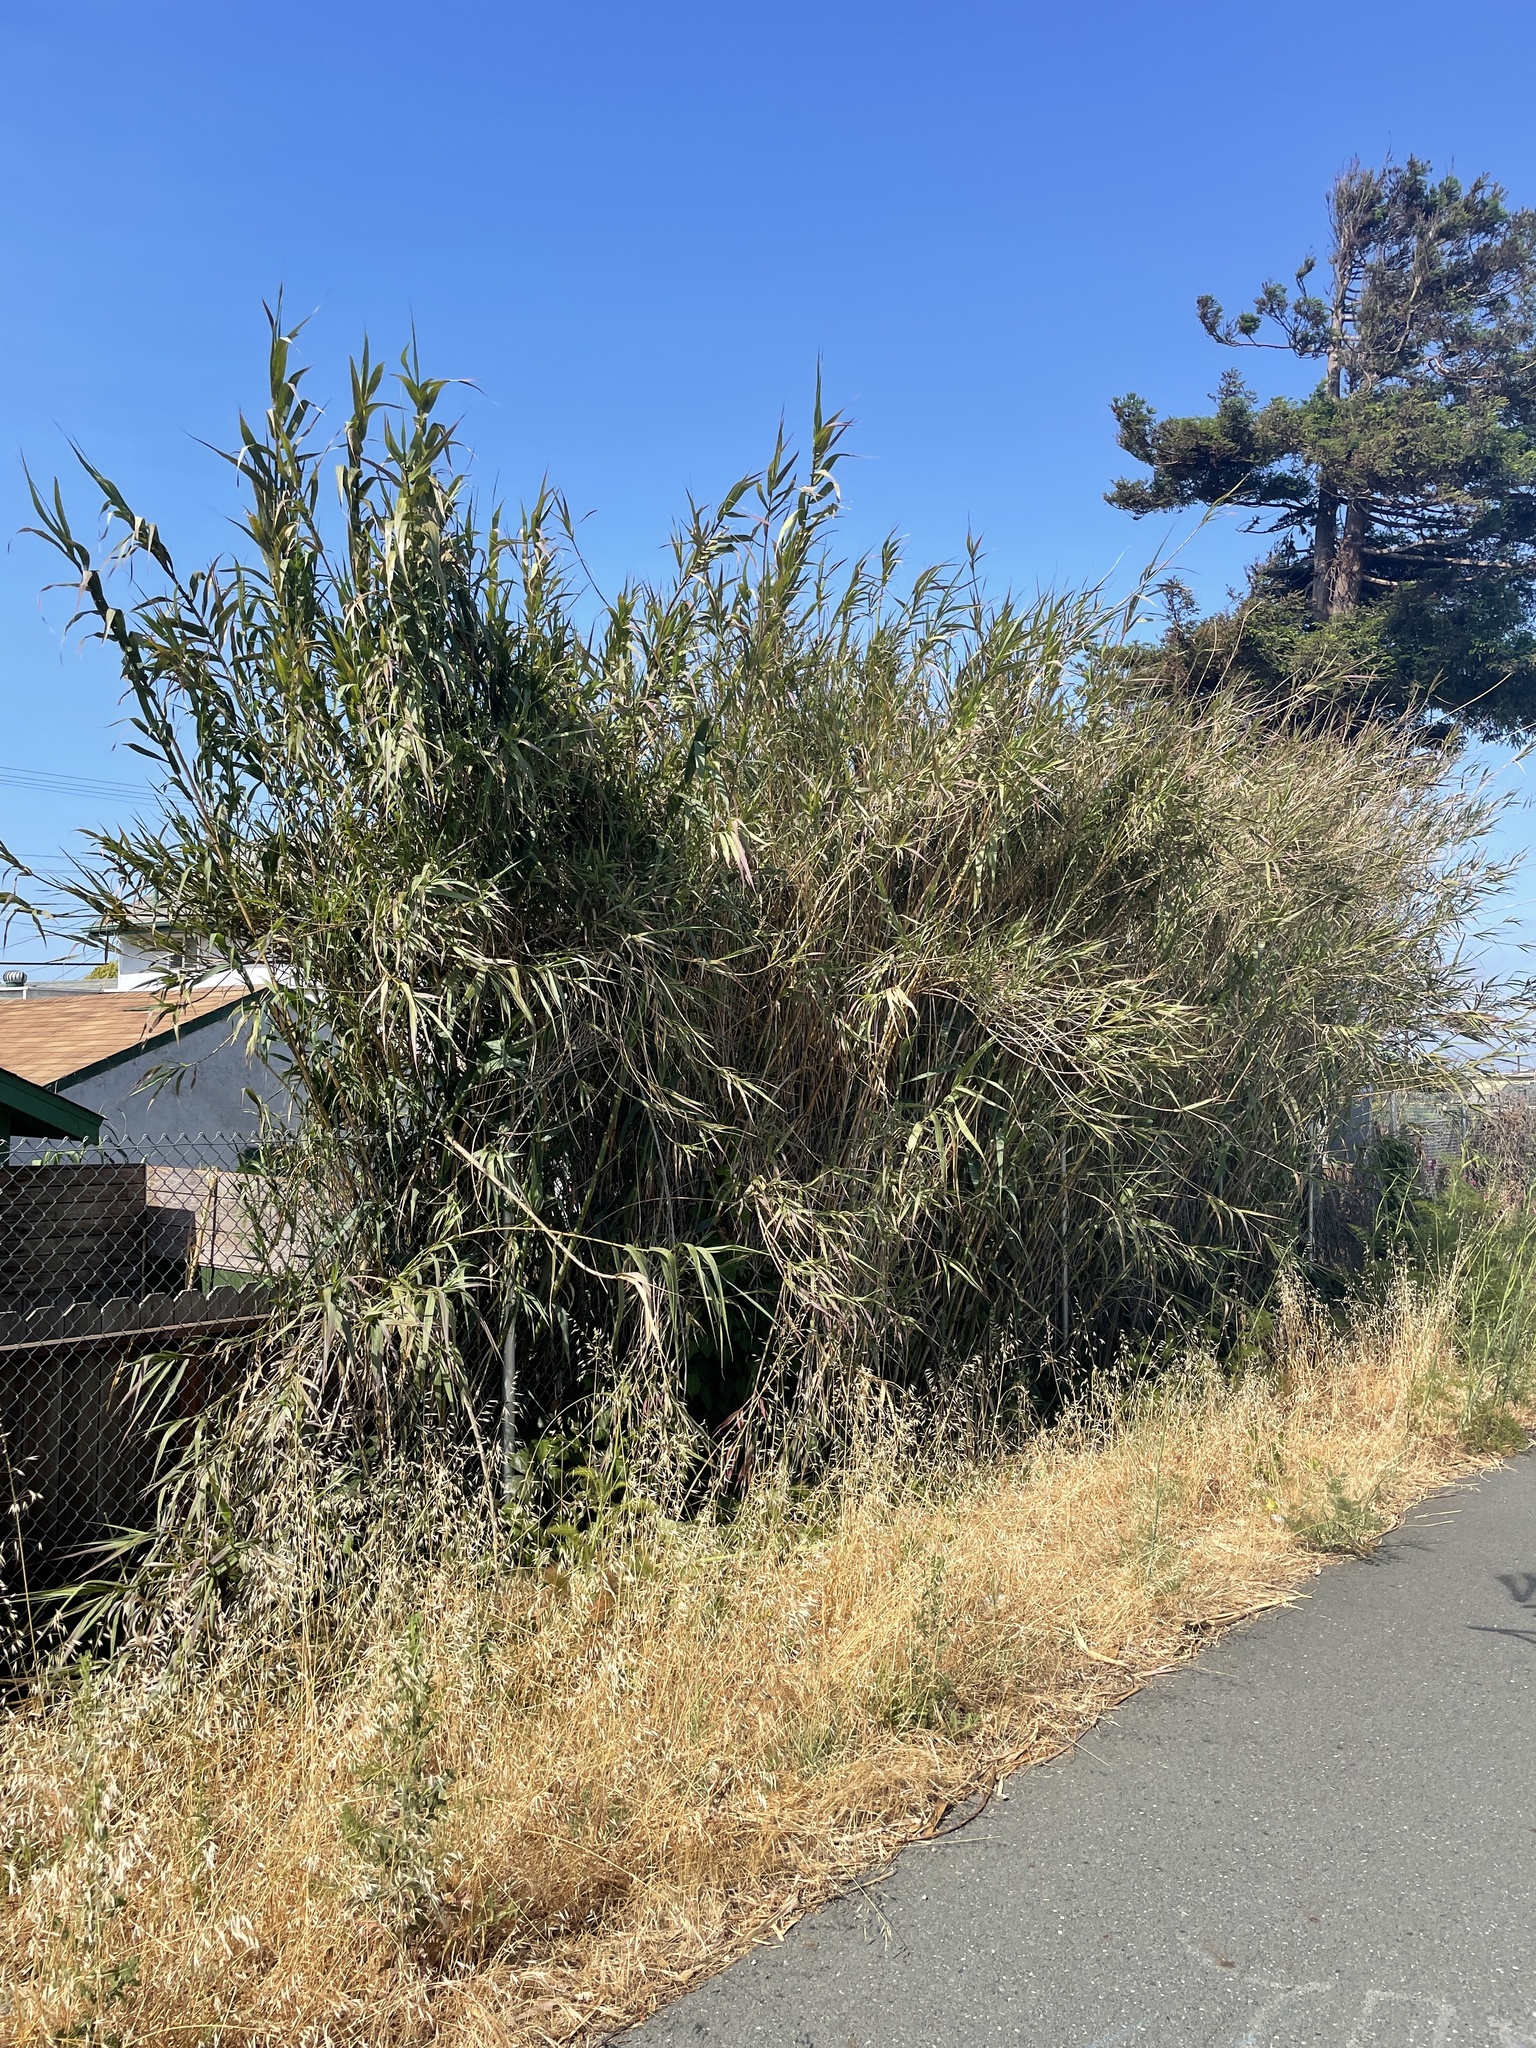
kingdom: Plantae
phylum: Tracheophyta
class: Liliopsida
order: Poales
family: Poaceae
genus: Arundo
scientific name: Arundo donax
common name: Giant reed
